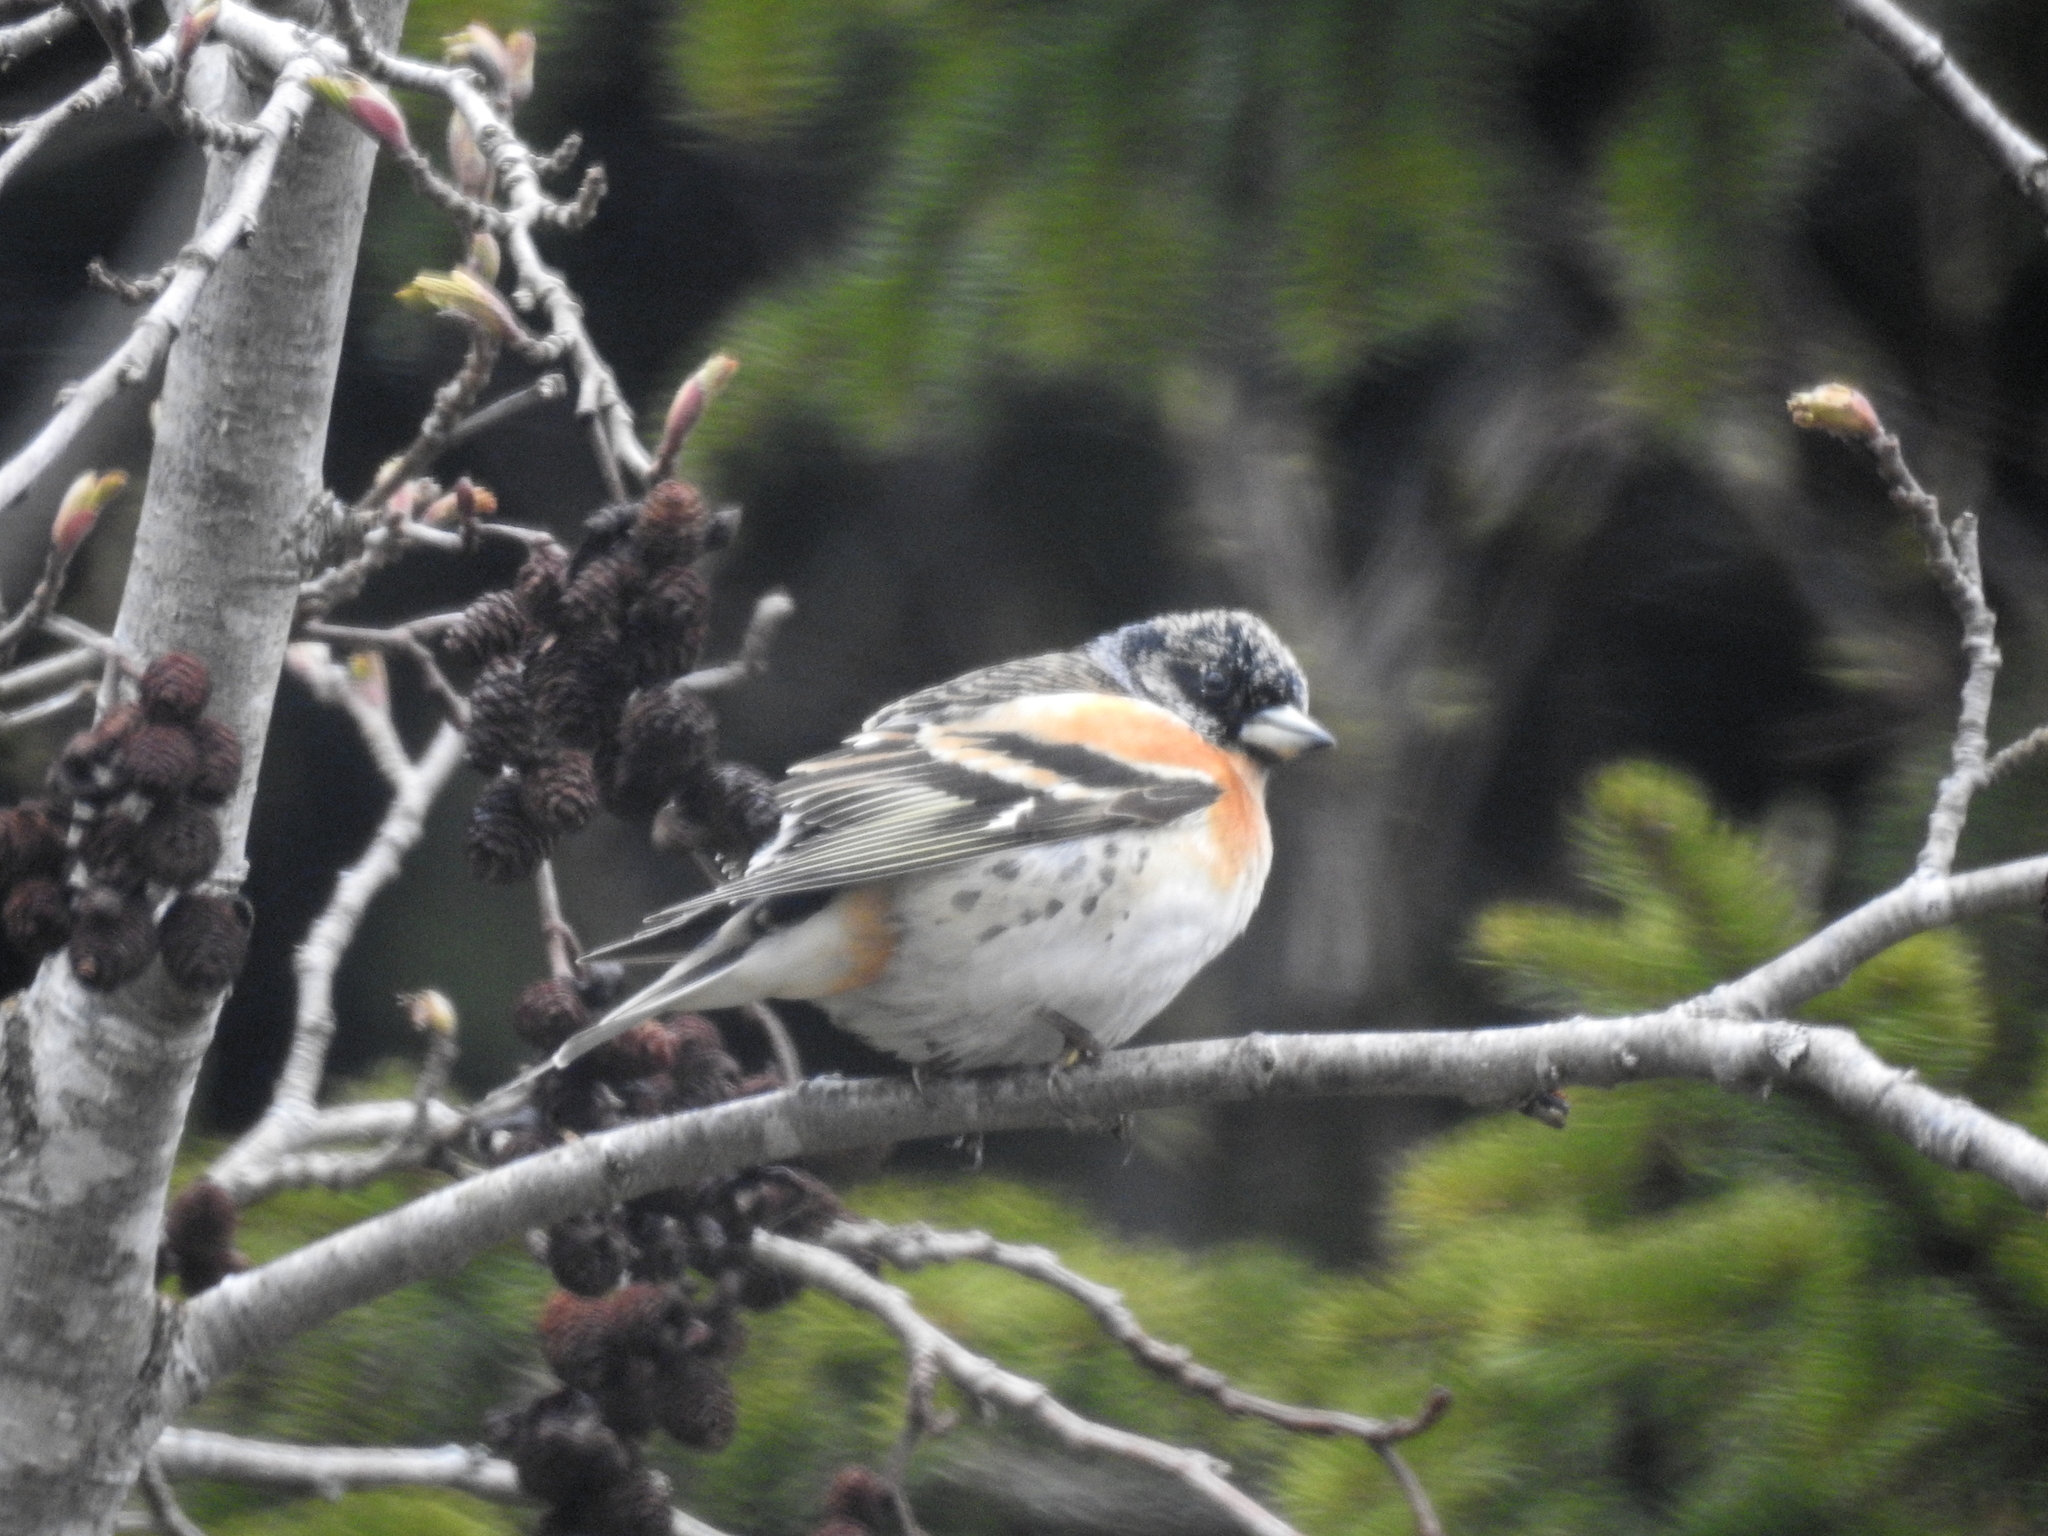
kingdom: Animalia
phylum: Chordata
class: Aves
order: Passeriformes
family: Fringillidae
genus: Fringilla
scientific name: Fringilla montifringilla
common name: Brambling
